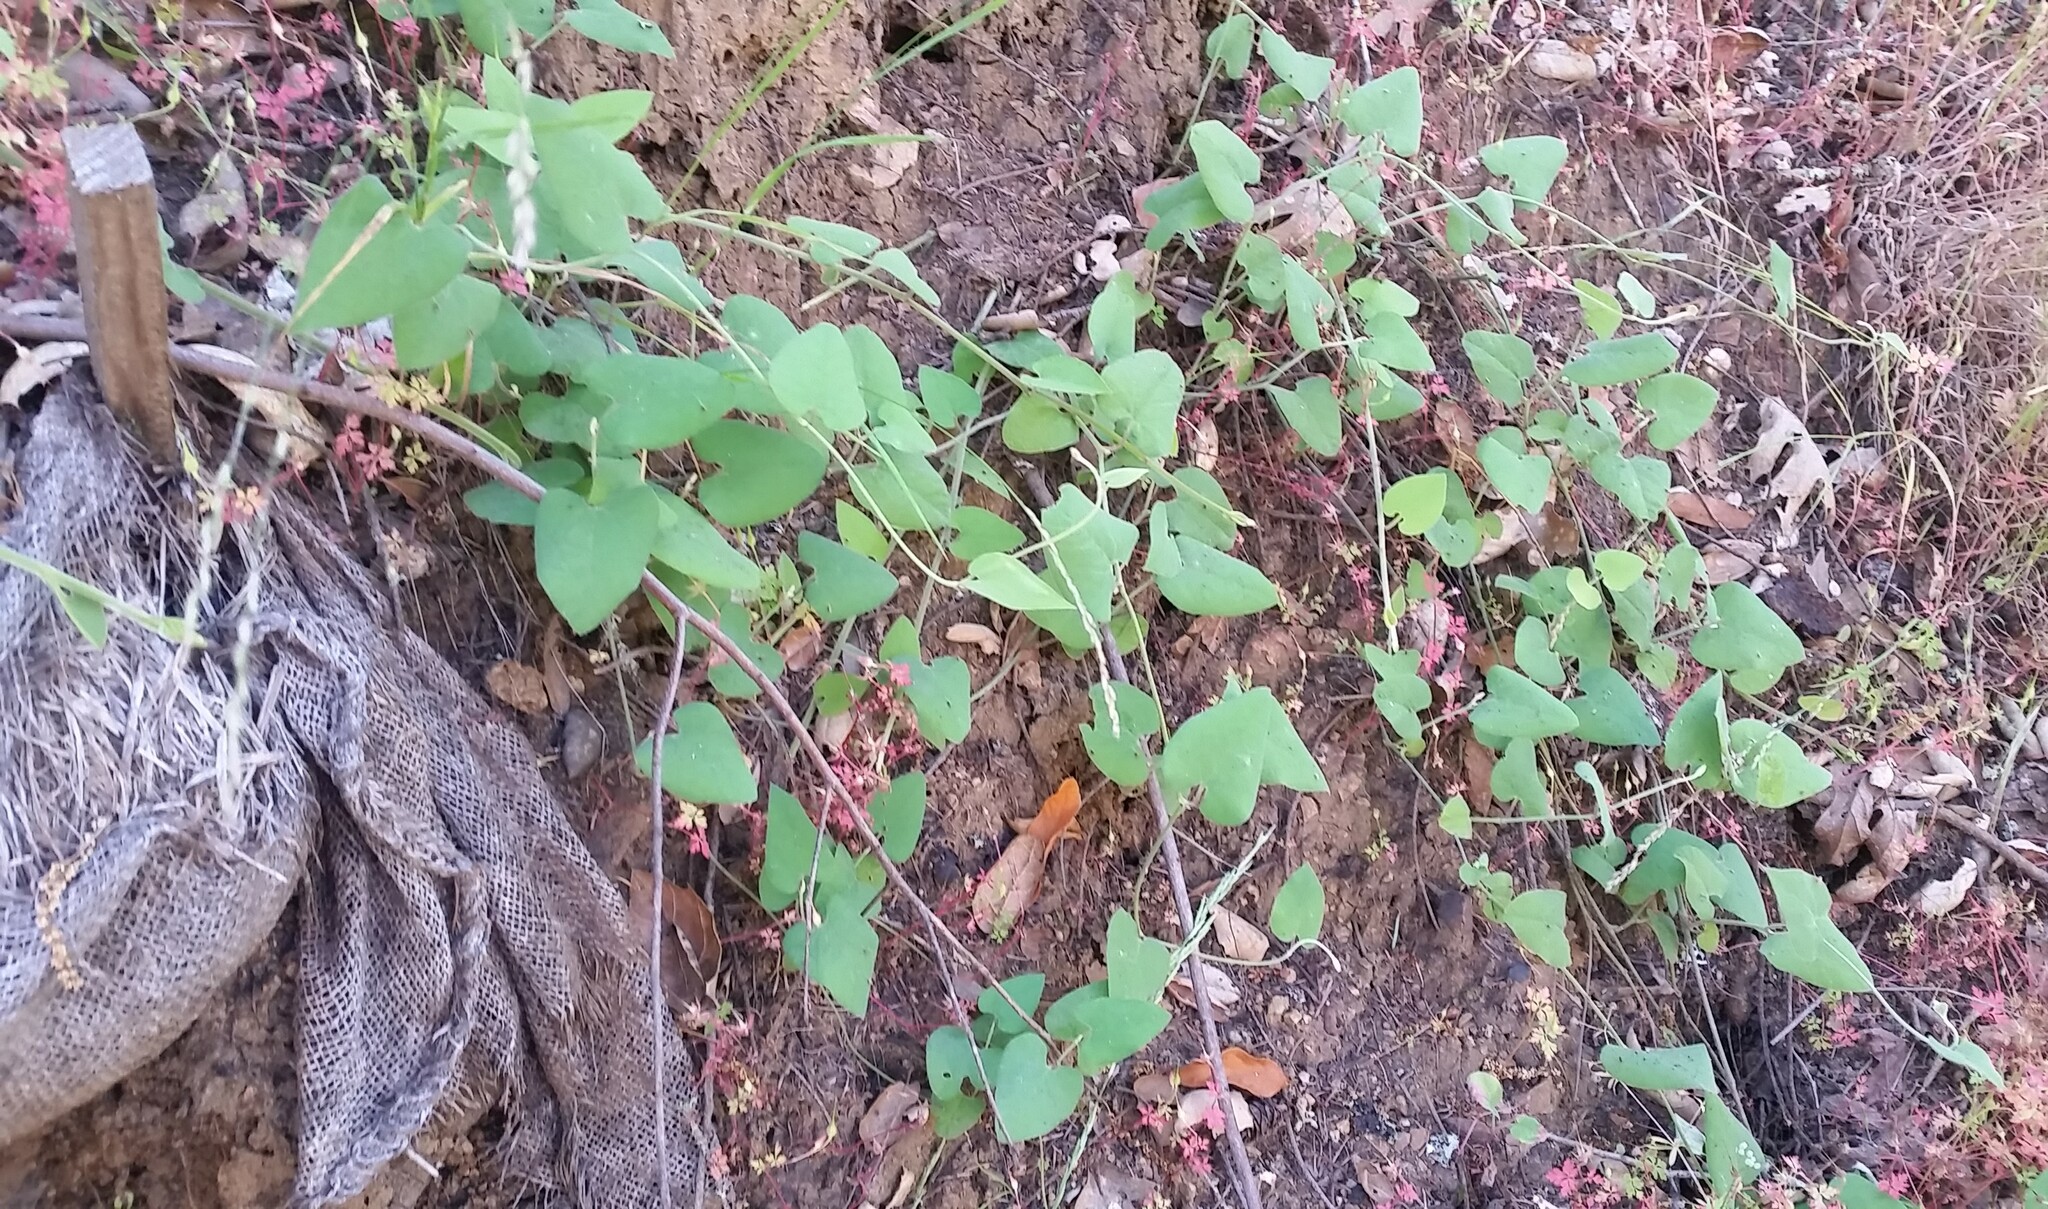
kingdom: Plantae
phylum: Tracheophyta
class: Magnoliopsida
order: Piperales
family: Aristolochiaceae
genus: Isotrema
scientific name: Isotrema californicum
